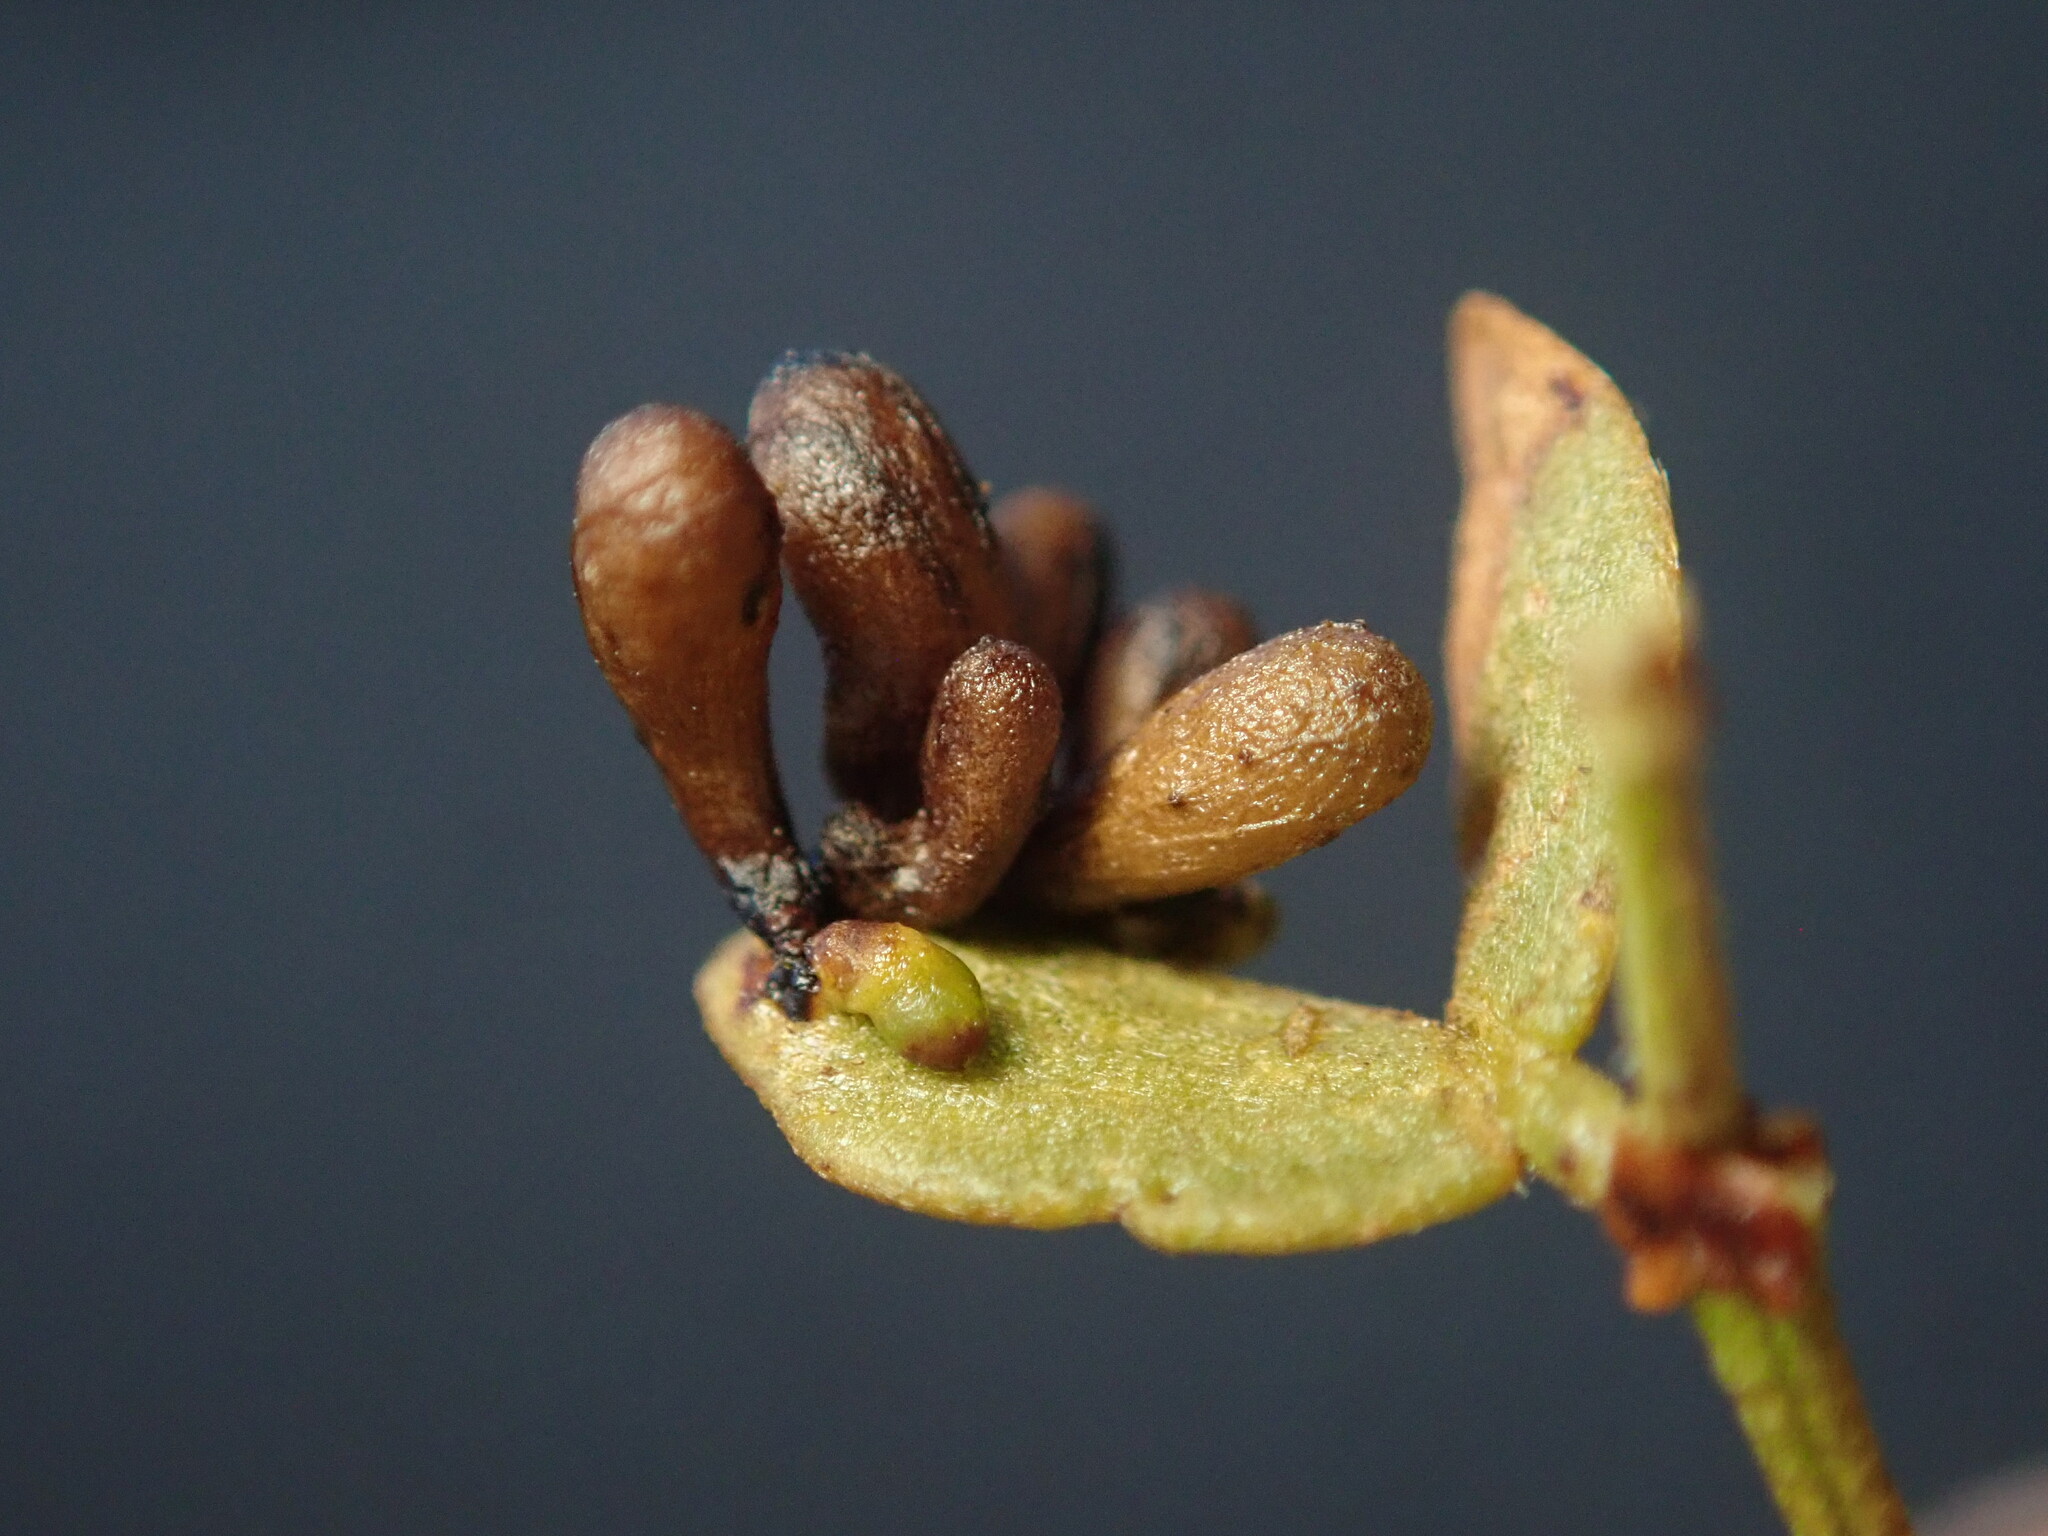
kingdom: Animalia
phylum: Arthropoda
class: Insecta
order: Diptera
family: Cecidomyiidae
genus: Asphondylia
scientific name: Asphondylia clavata
